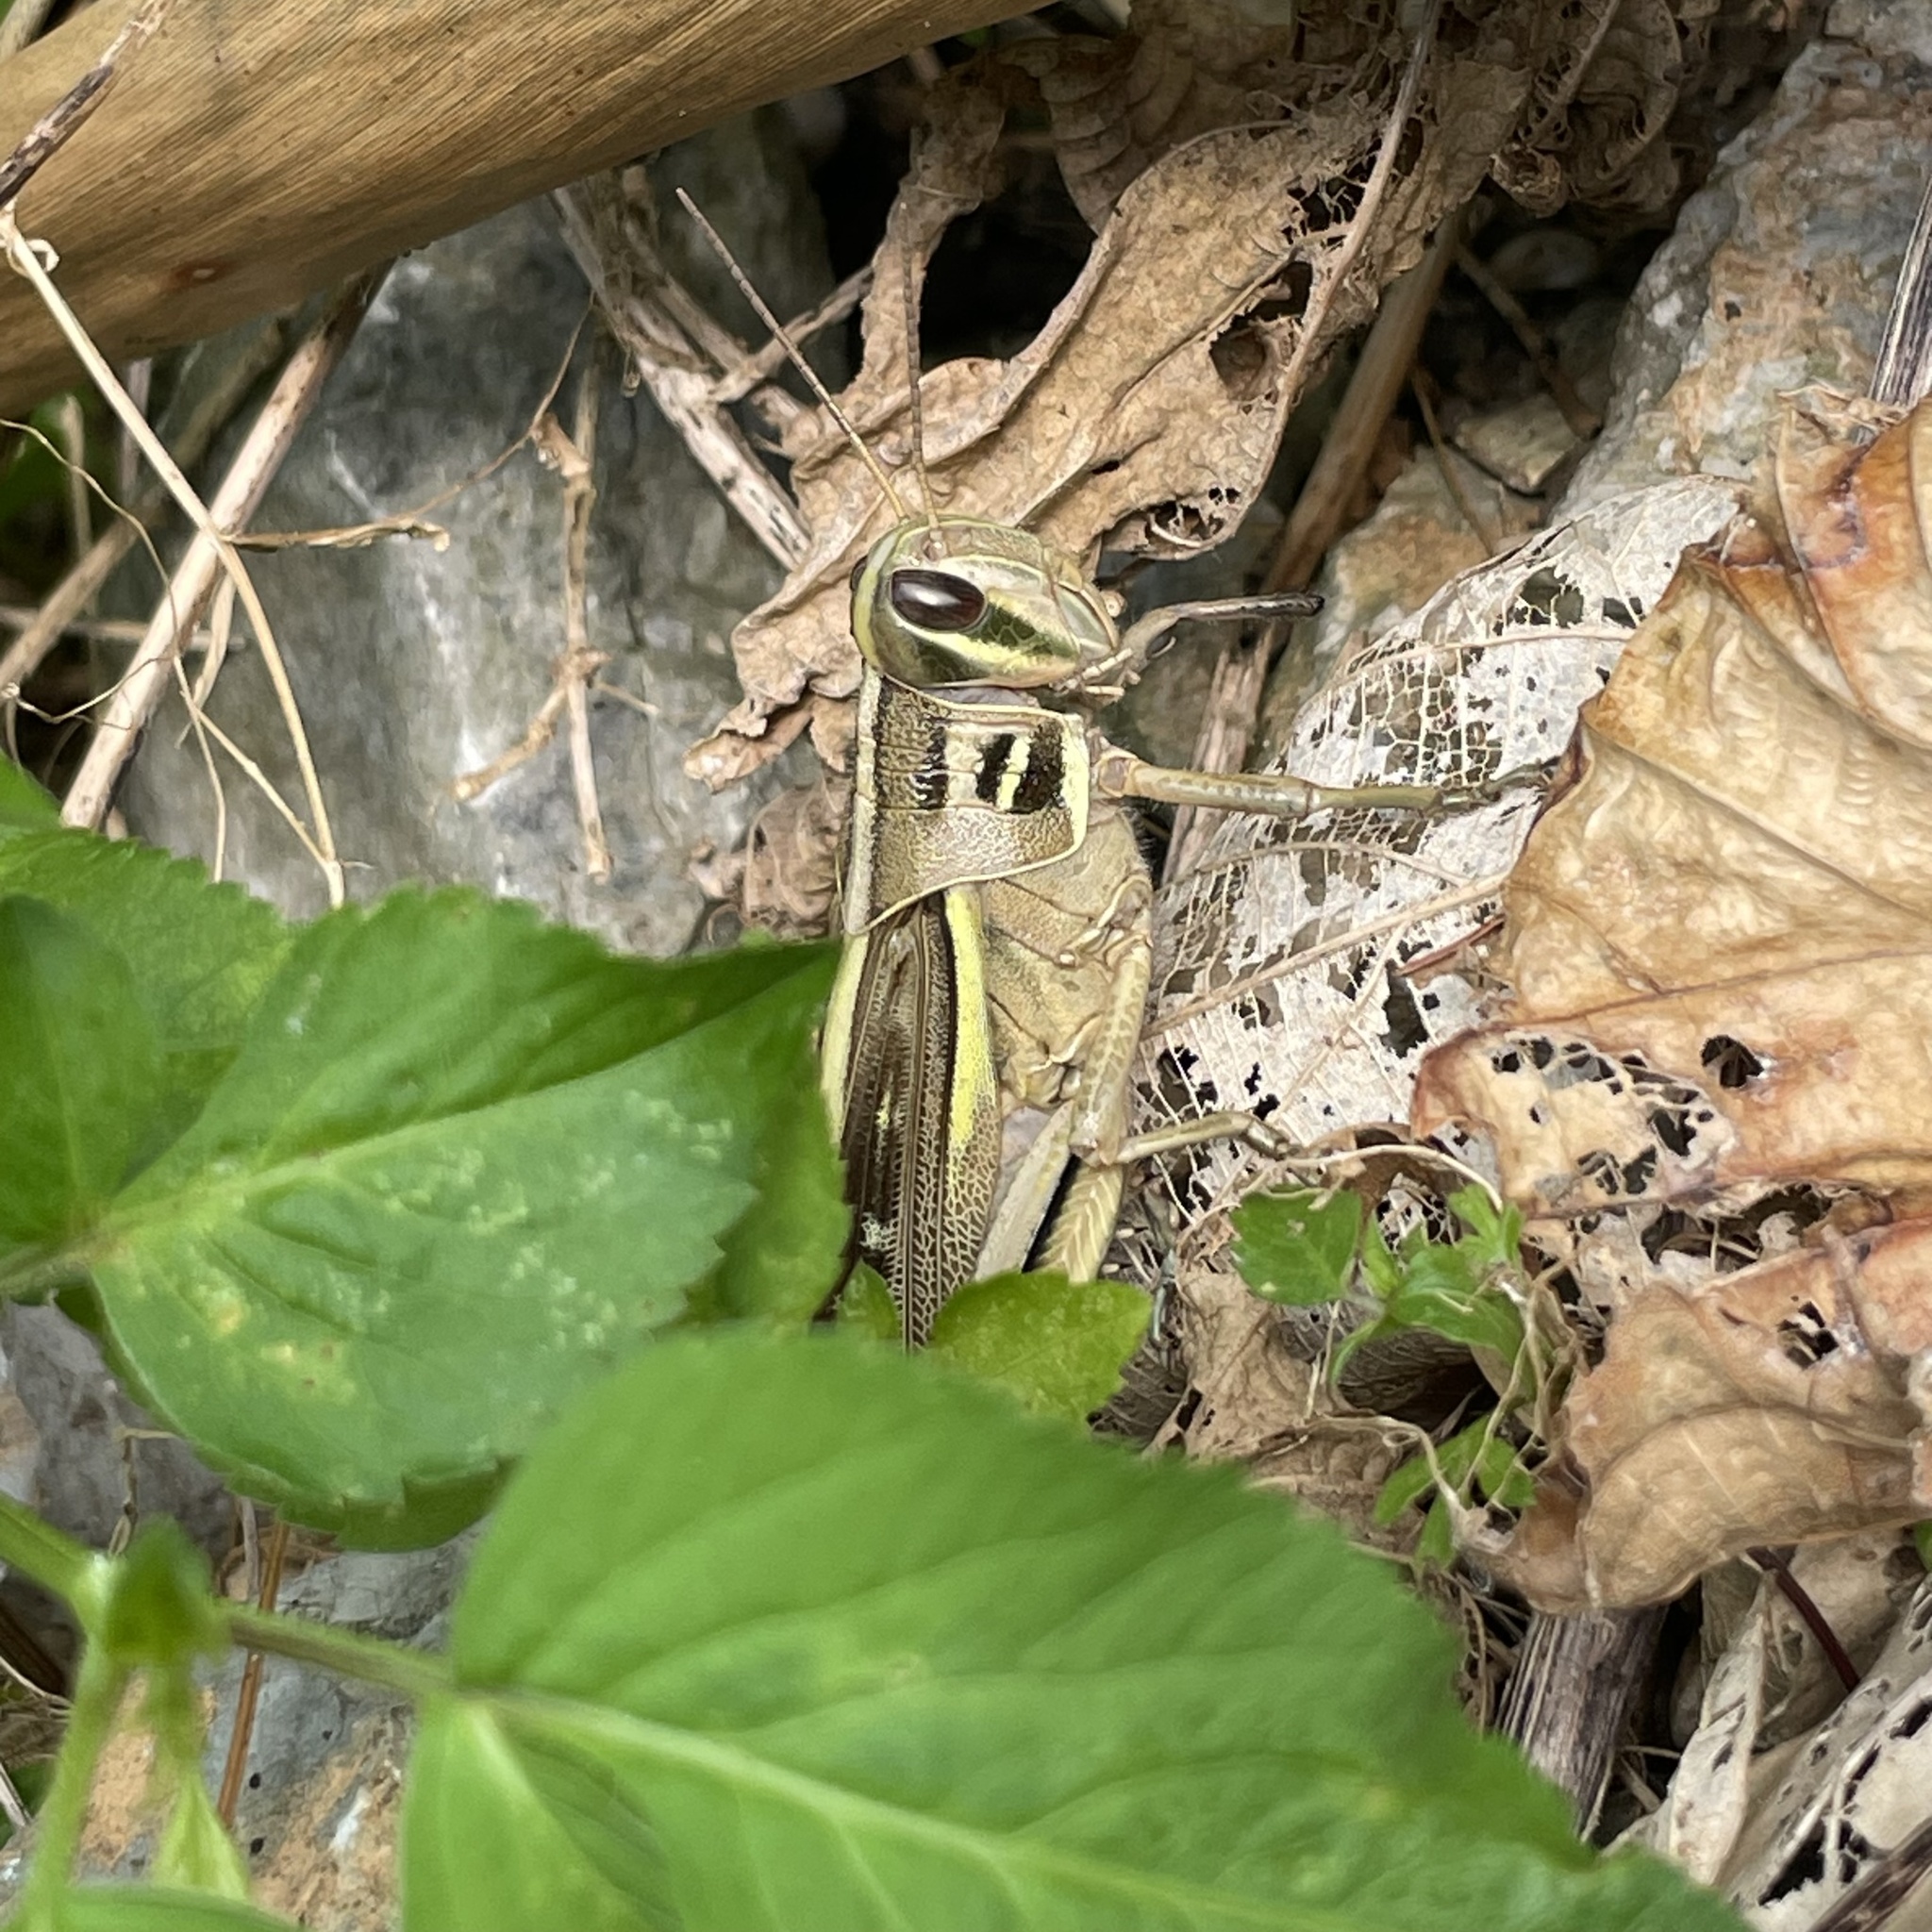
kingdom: Animalia
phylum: Arthropoda
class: Insecta
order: Orthoptera
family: Acrididae
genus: Patanga
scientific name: Patanga succincta
